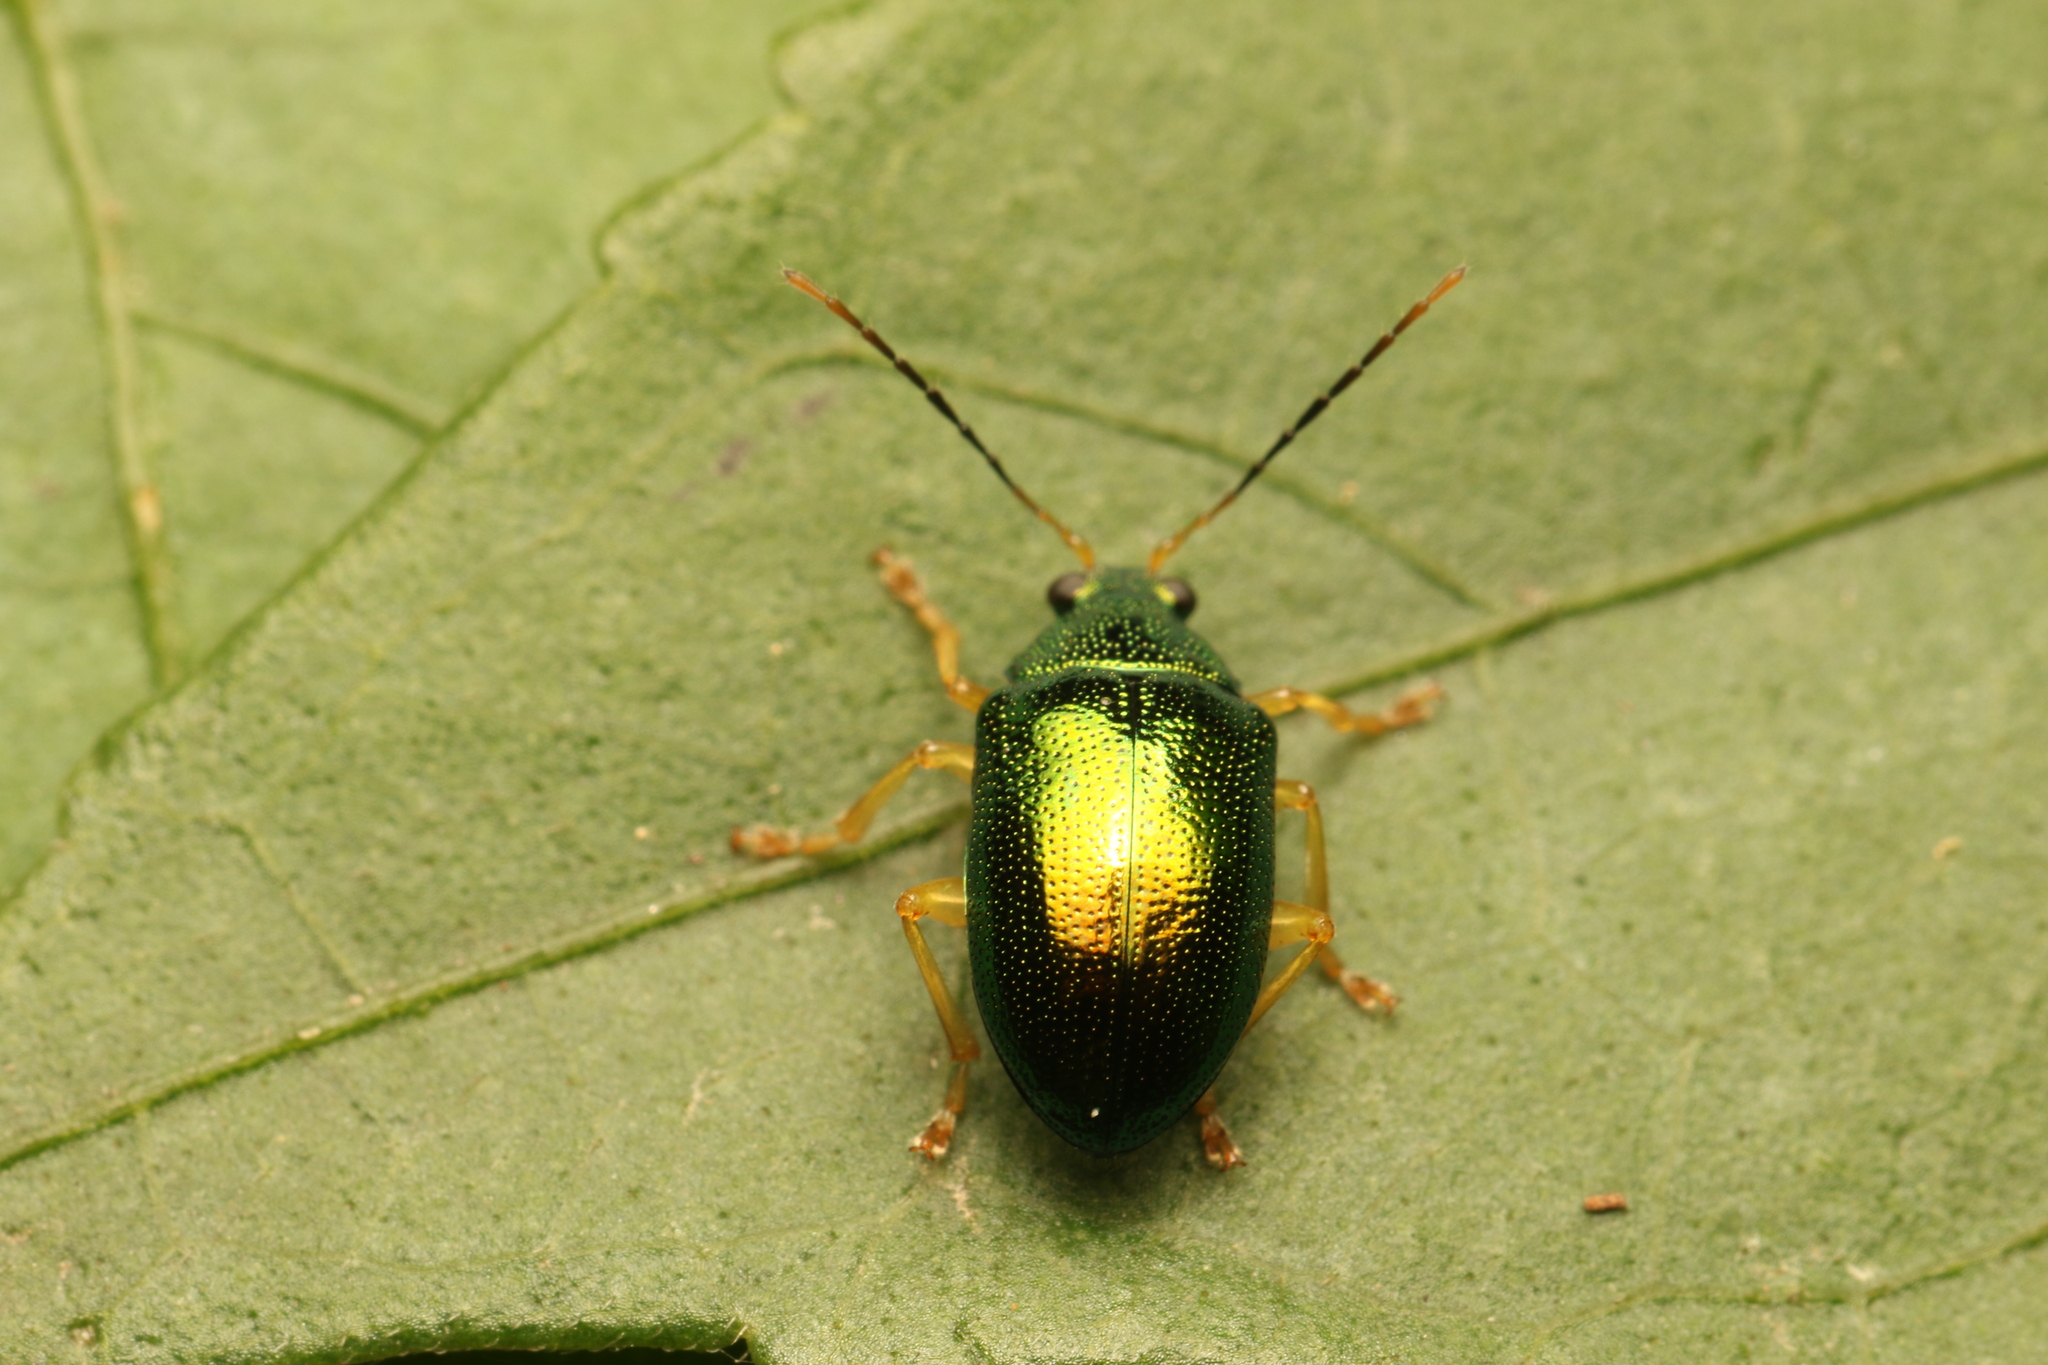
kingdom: Animalia
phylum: Arthropoda
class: Insecta
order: Coleoptera
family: Chrysomelidae
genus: Colaspis
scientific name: Colaspis
